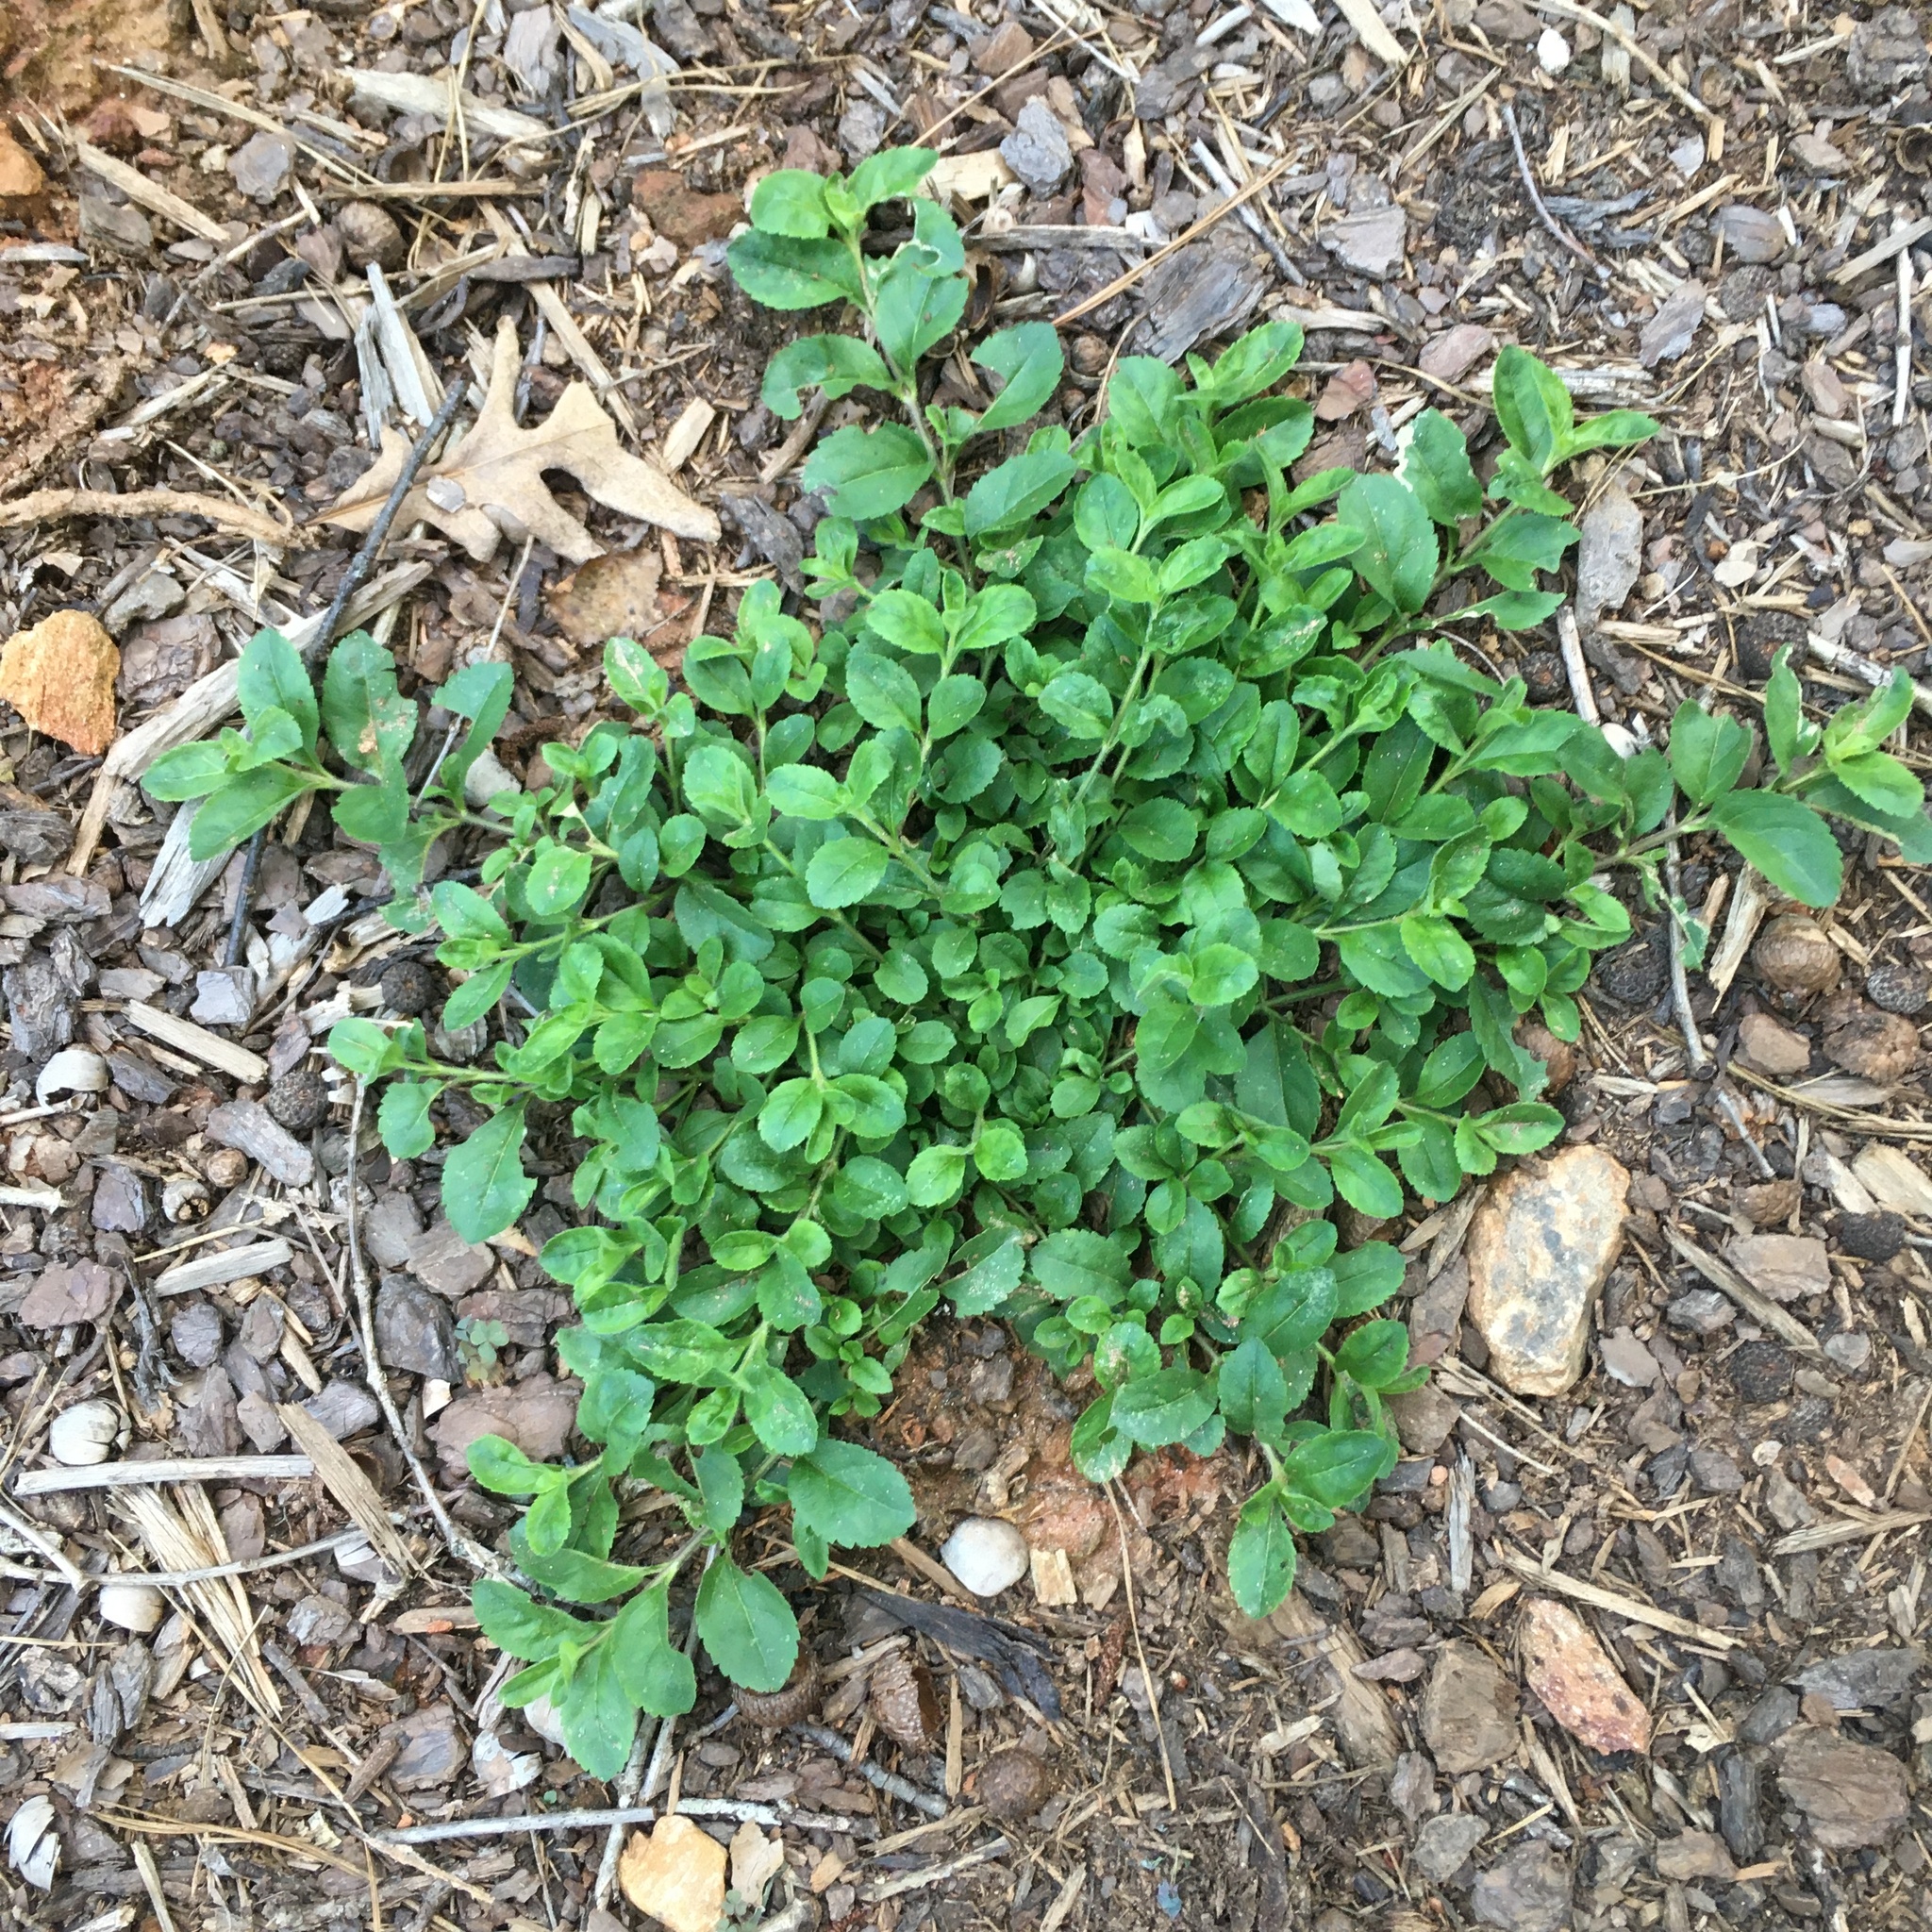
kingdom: Plantae
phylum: Tracheophyta
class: Magnoliopsida
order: Lamiales
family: Plantaginaceae
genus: Veronica
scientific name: Veronica officinalis
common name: Common speedwell
